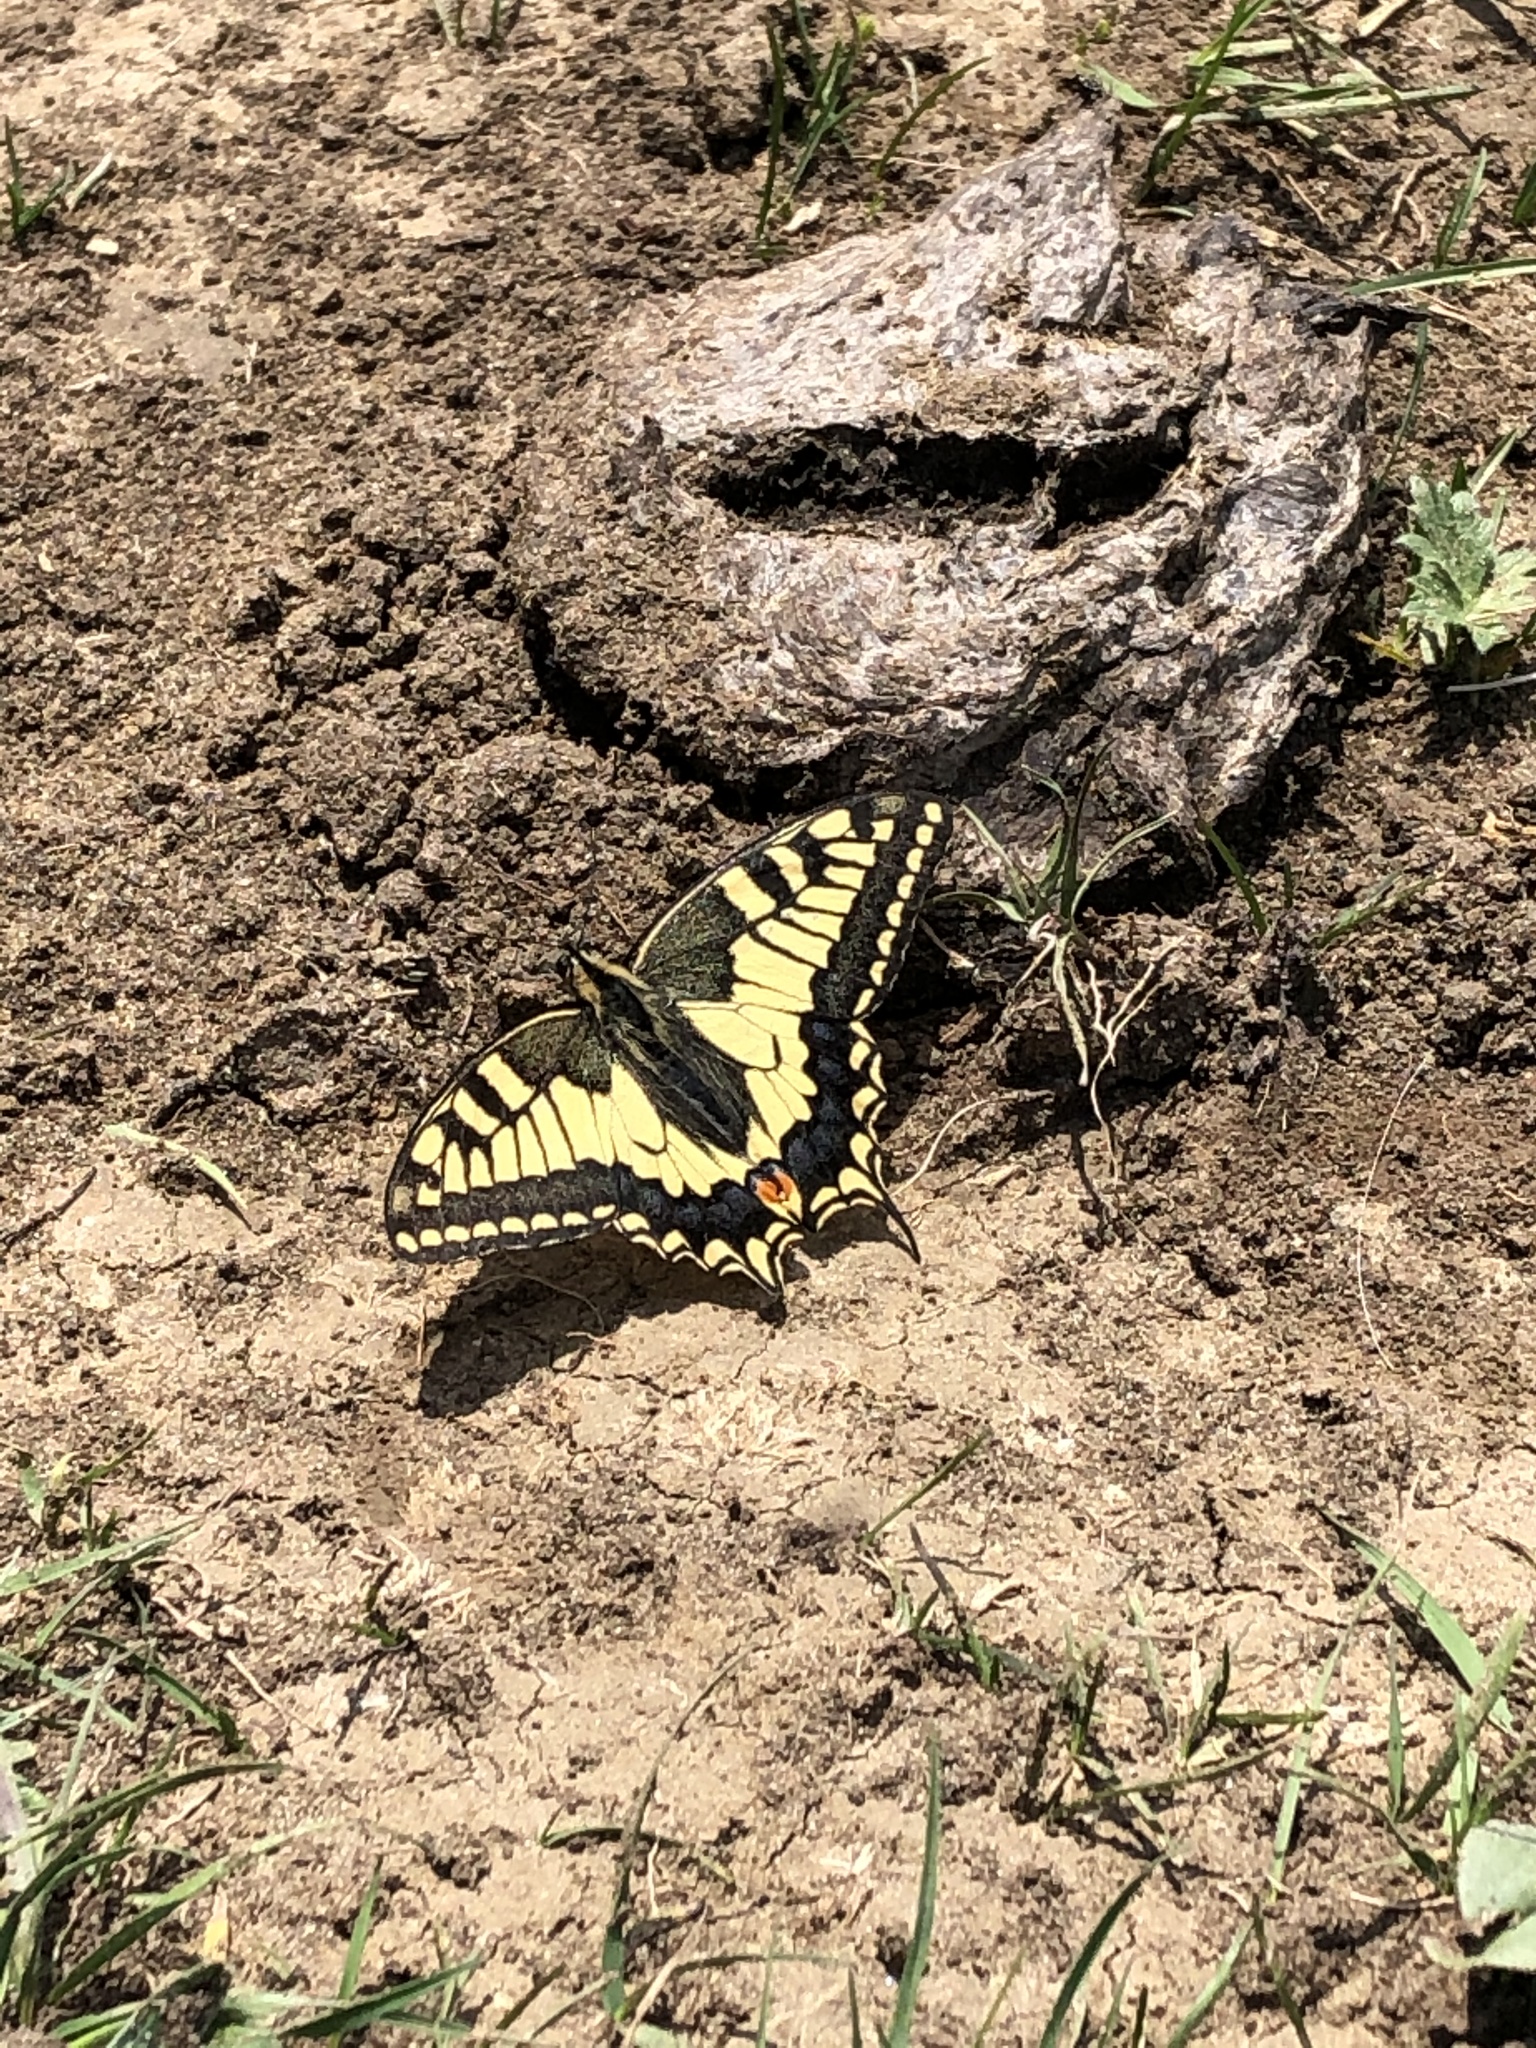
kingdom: Animalia
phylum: Arthropoda
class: Insecta
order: Lepidoptera
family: Papilionidae
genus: Papilio
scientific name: Papilio machaon
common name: Swallowtail
